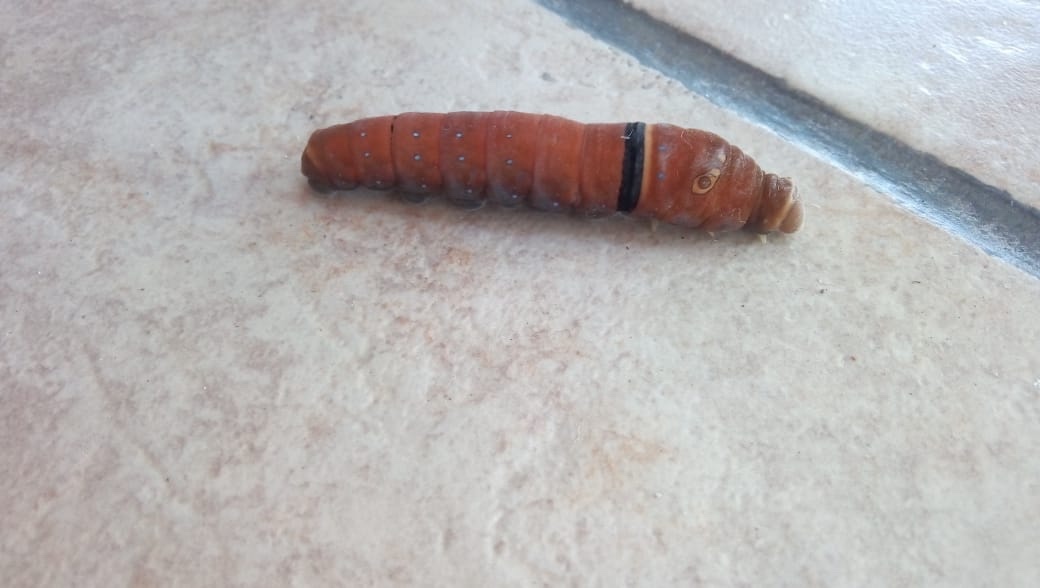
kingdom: Animalia
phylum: Arthropoda
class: Insecta
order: Lepidoptera
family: Papilionidae
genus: Papilio
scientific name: Papilio multicaudata
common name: Two-tailed tiger swallowtail
